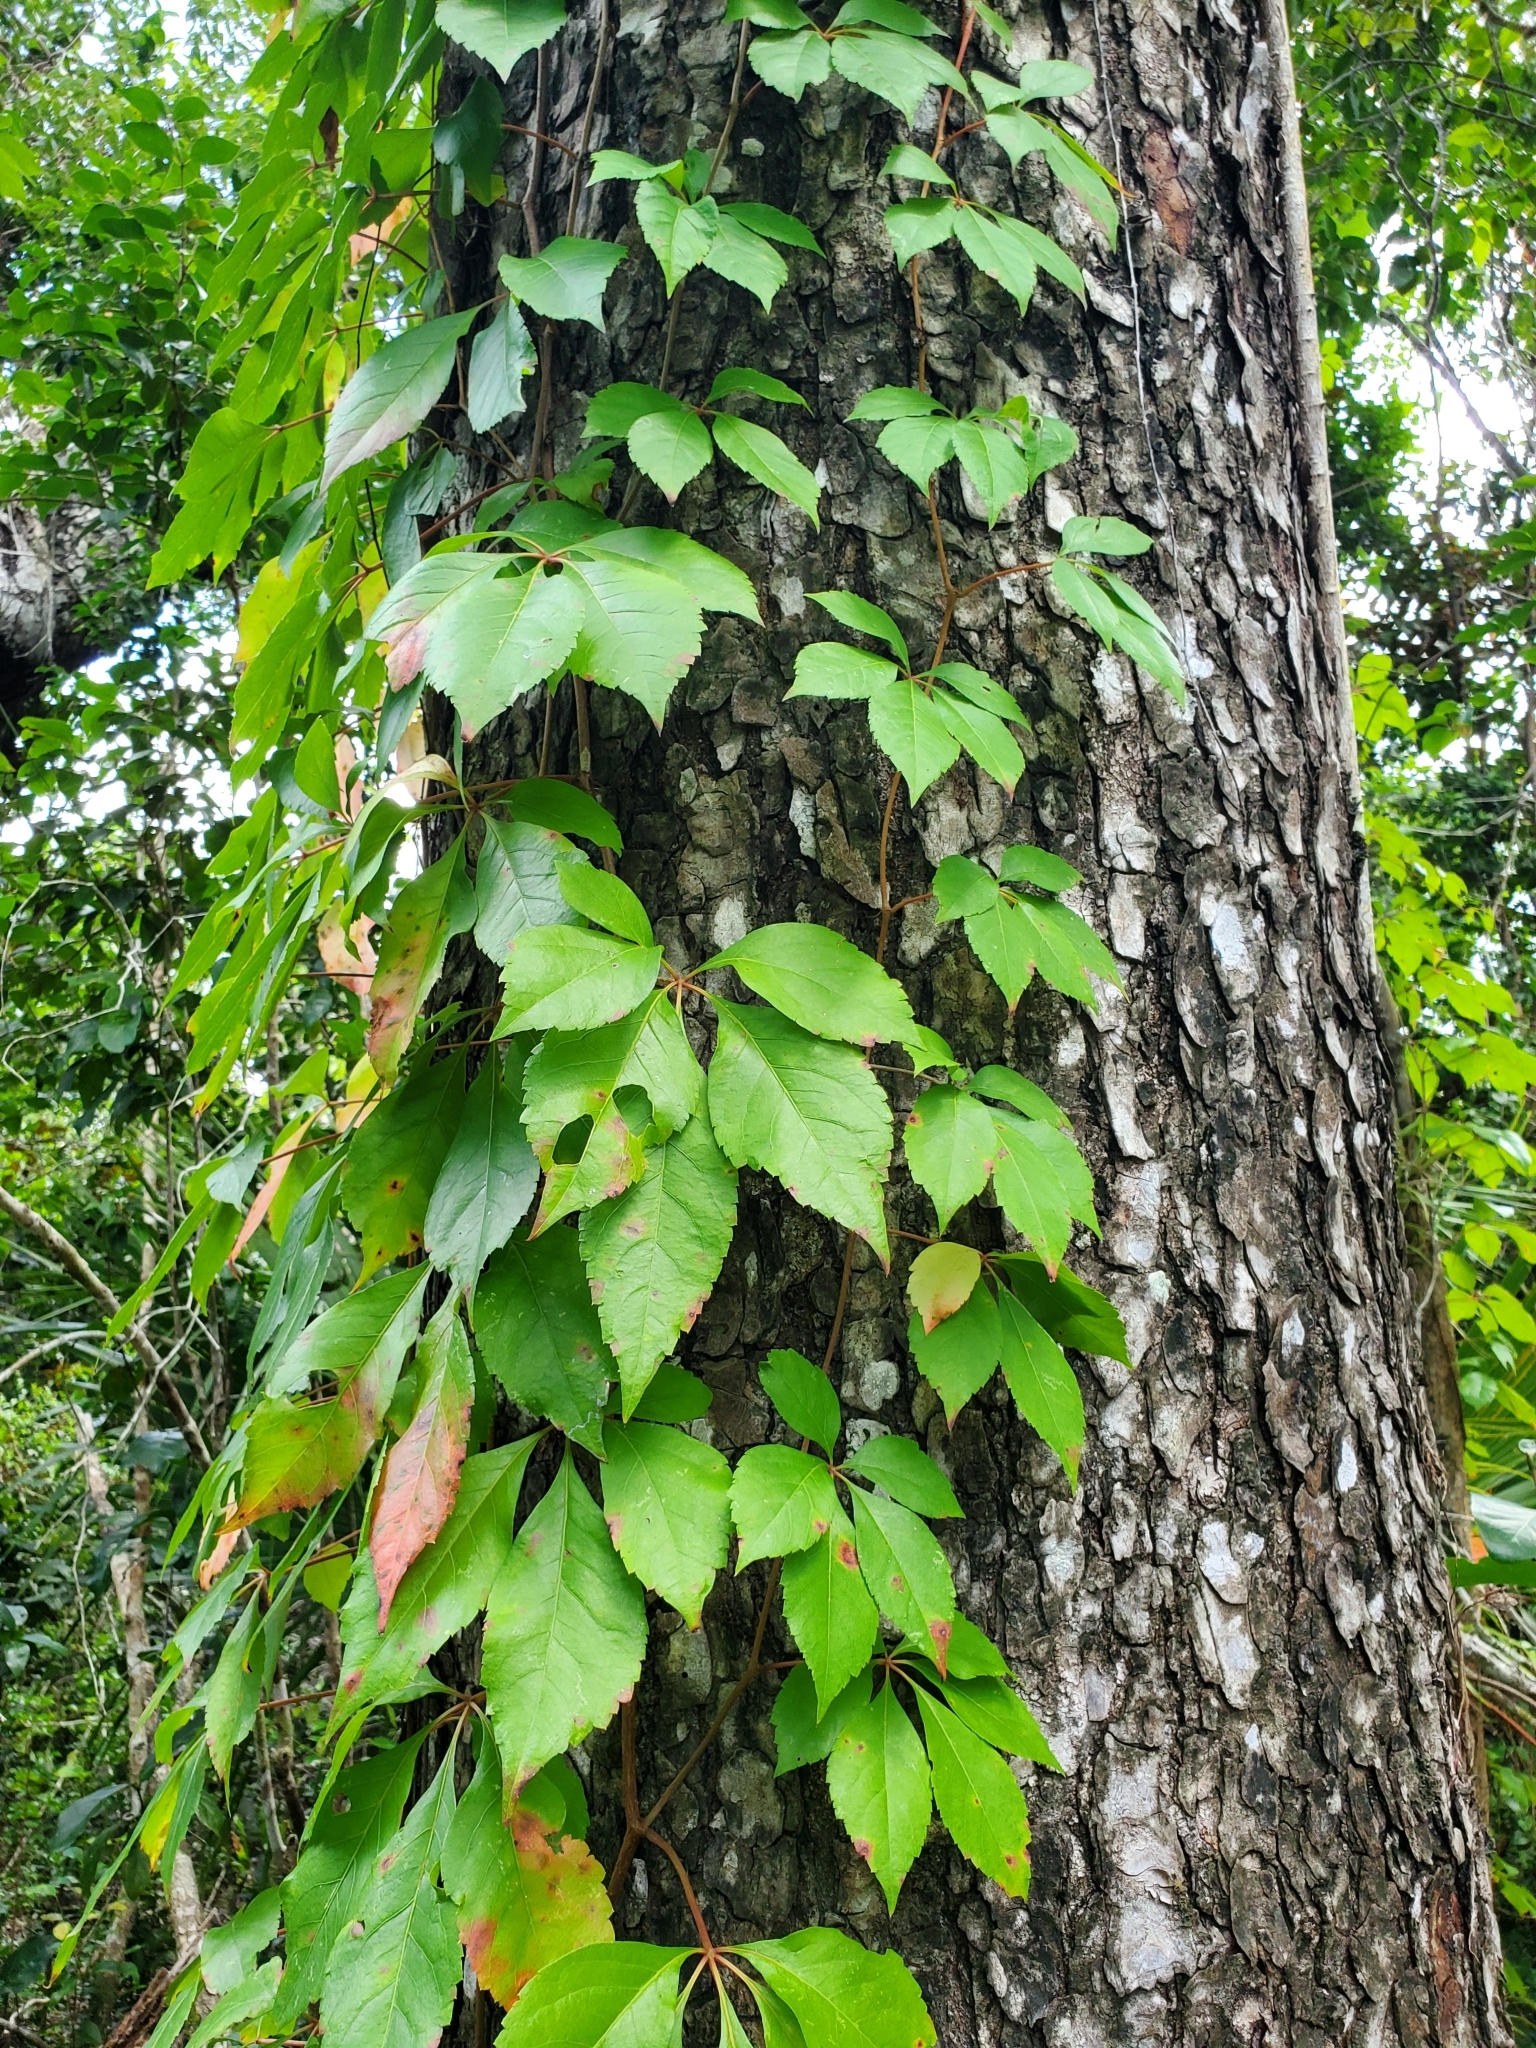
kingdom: Plantae
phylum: Tracheophyta
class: Magnoliopsida
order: Vitales
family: Vitaceae
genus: Parthenocissus
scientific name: Parthenocissus quinquefolia
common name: Virginia-creeper
